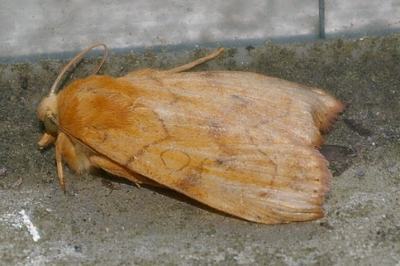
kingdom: Animalia
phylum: Arthropoda
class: Insecta
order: Lepidoptera
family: Noctuidae
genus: Enargia
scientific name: Enargia paleacea
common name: Angle-striped sallow
